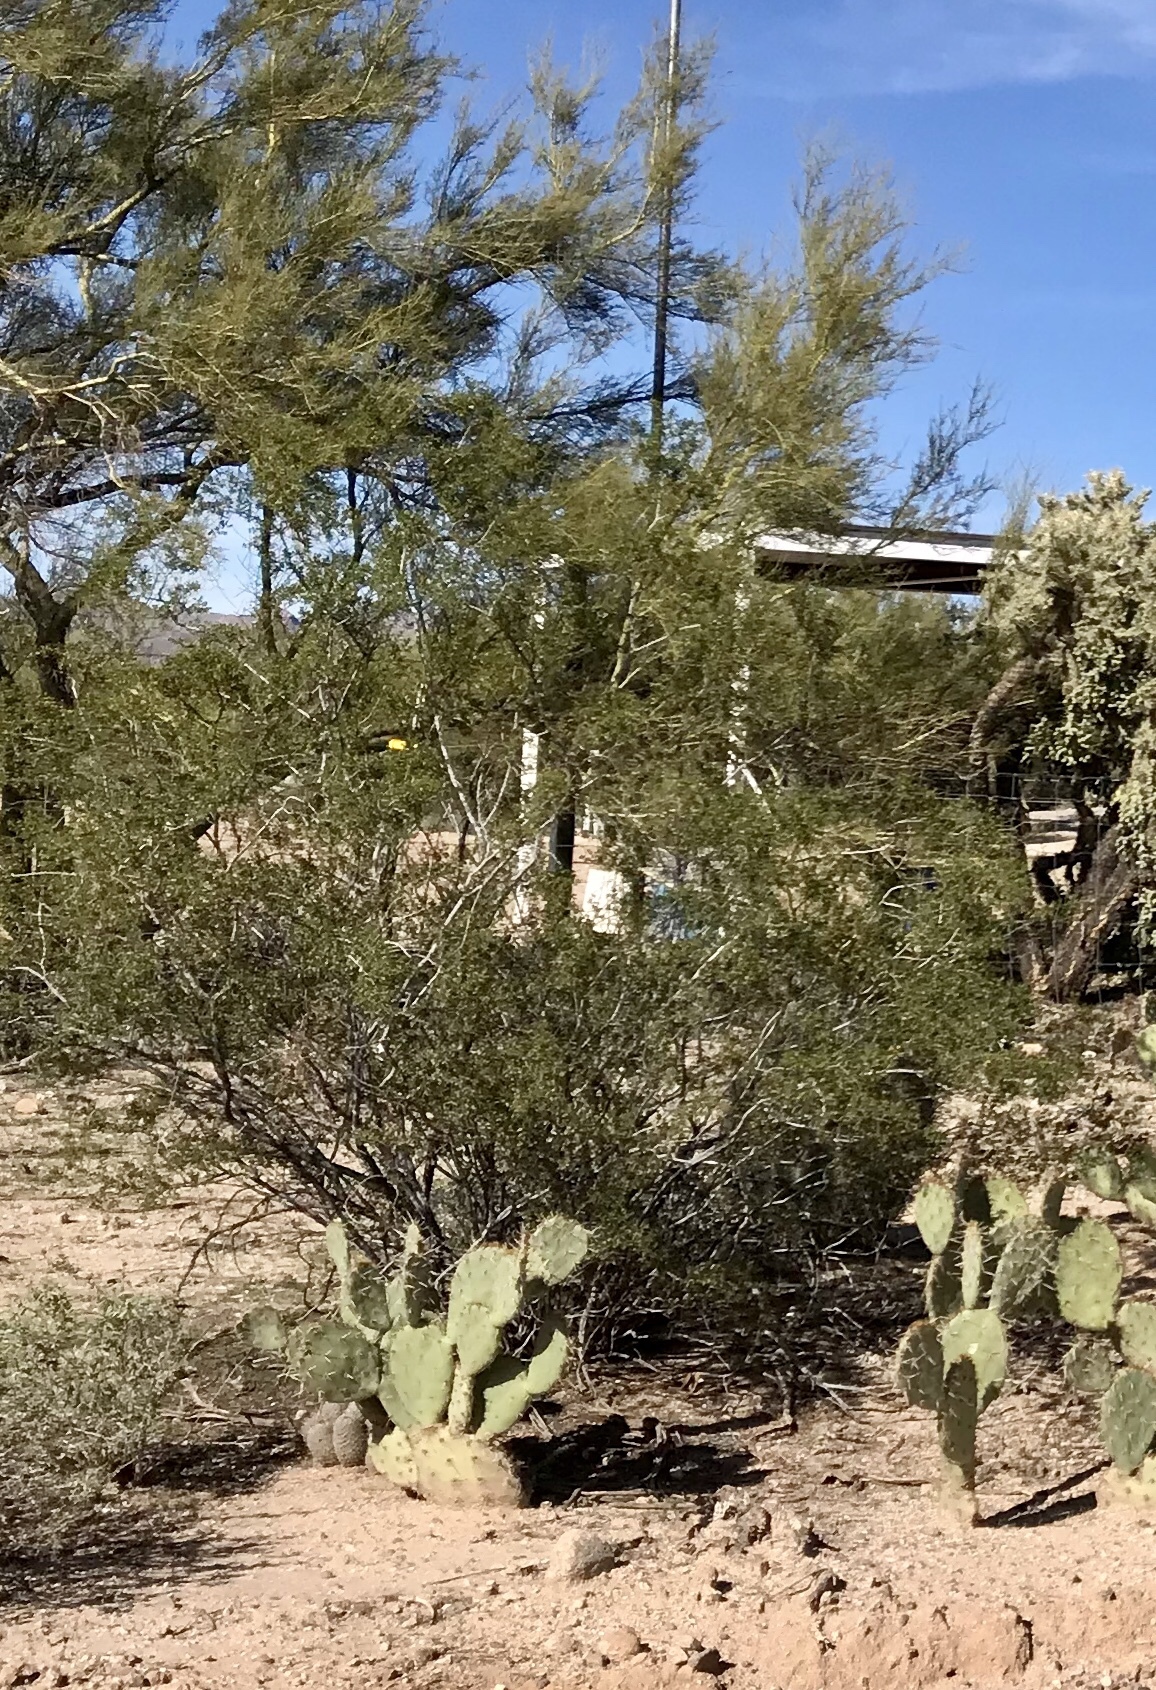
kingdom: Plantae
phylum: Tracheophyta
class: Magnoliopsida
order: Zygophyllales
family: Zygophyllaceae
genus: Larrea
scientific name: Larrea tridentata
